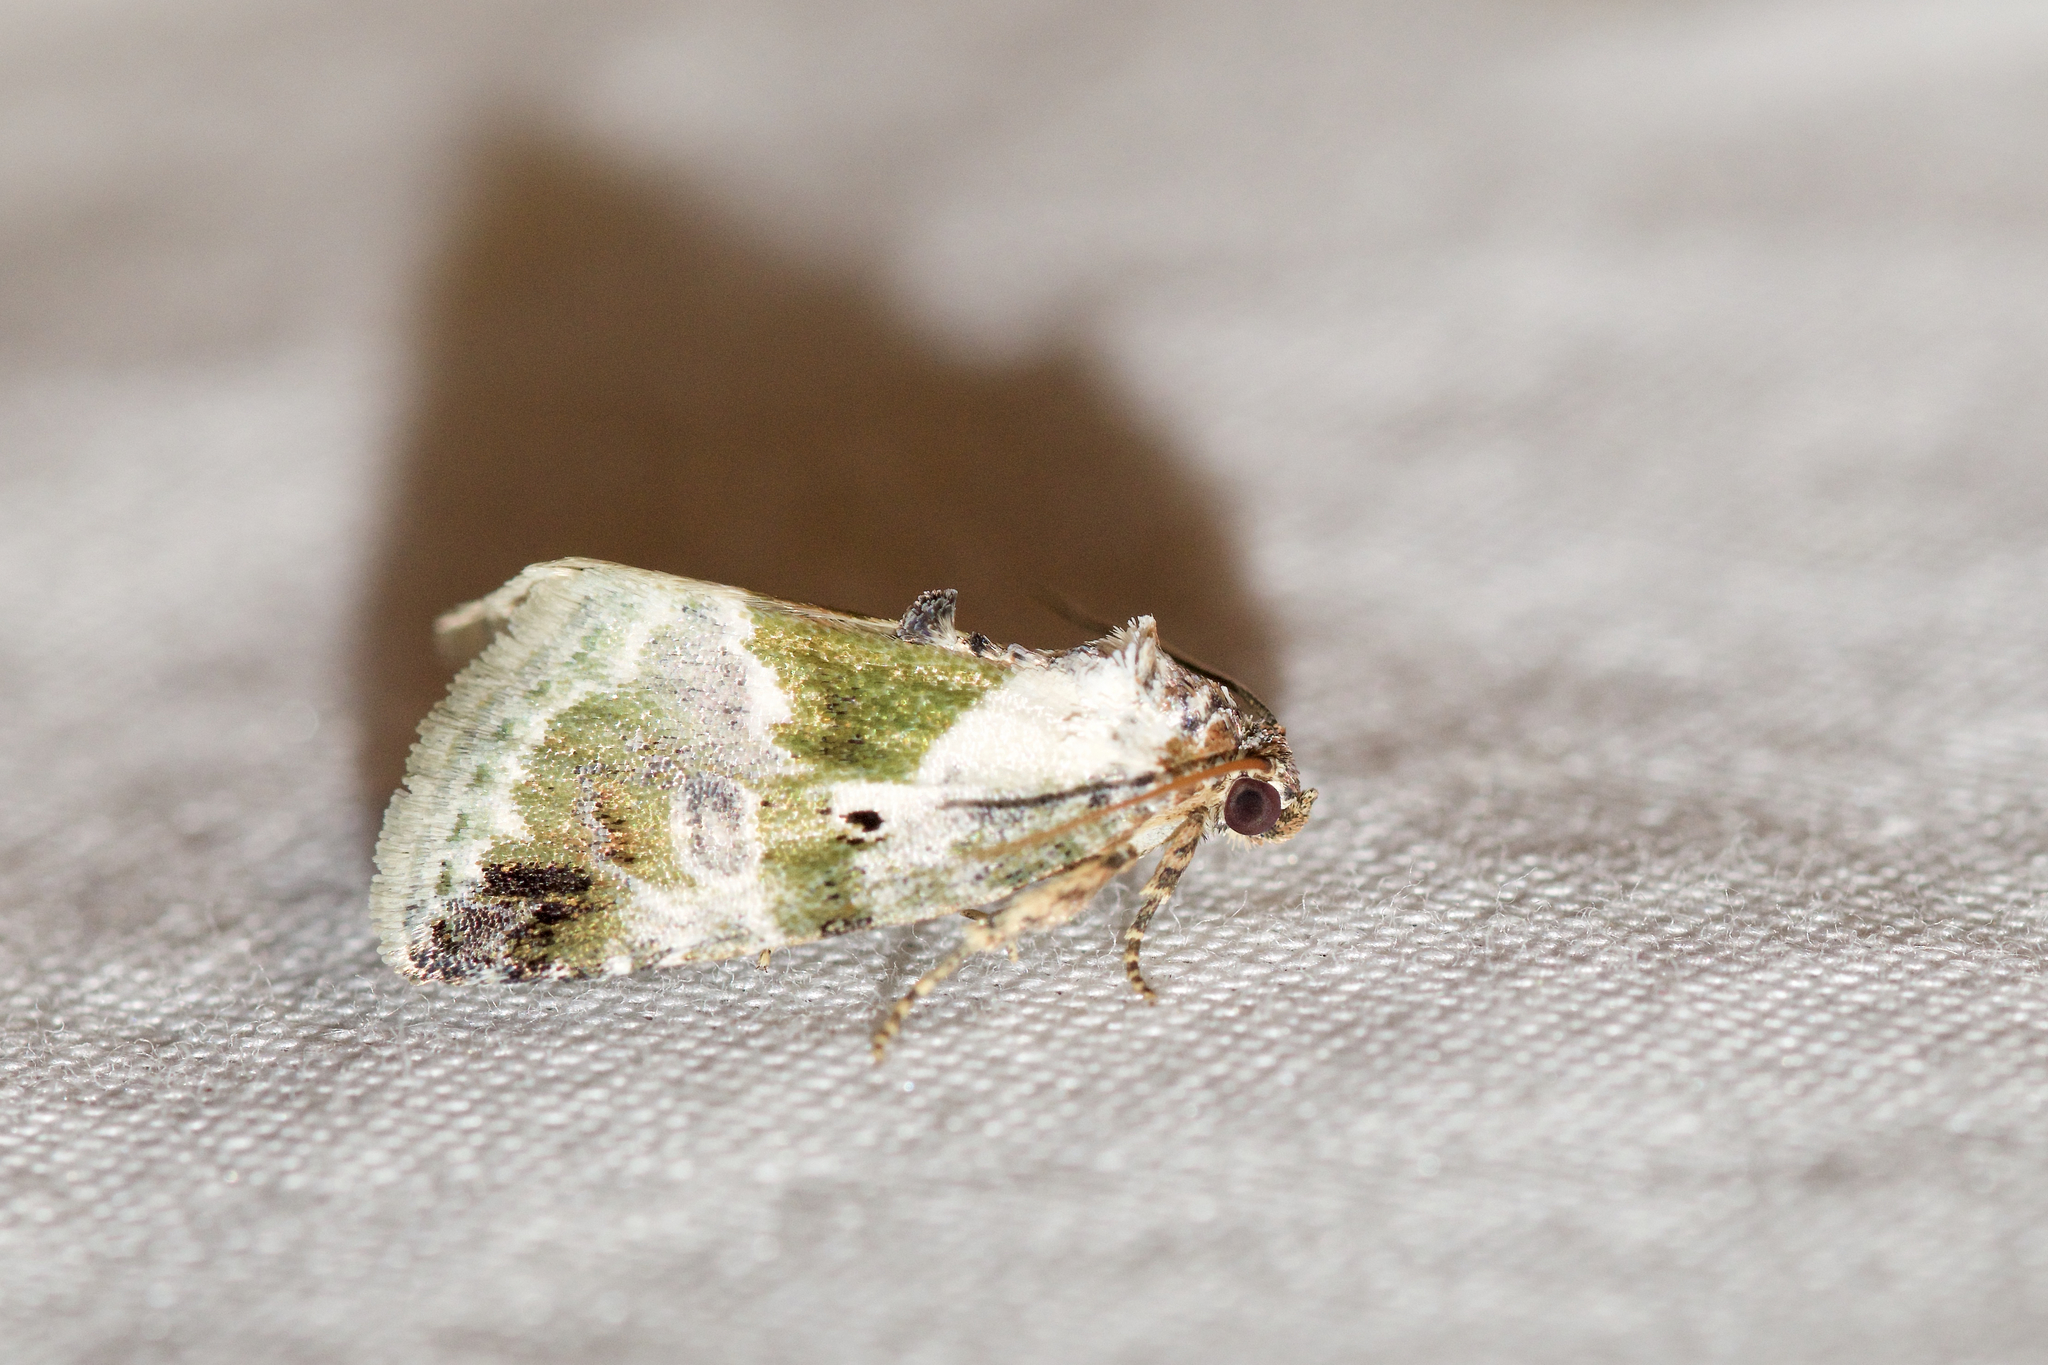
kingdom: Animalia
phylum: Arthropoda
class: Insecta
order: Lepidoptera
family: Noctuidae
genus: Maliattha
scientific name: Maliattha synochitis
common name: Black-dotted glyph
